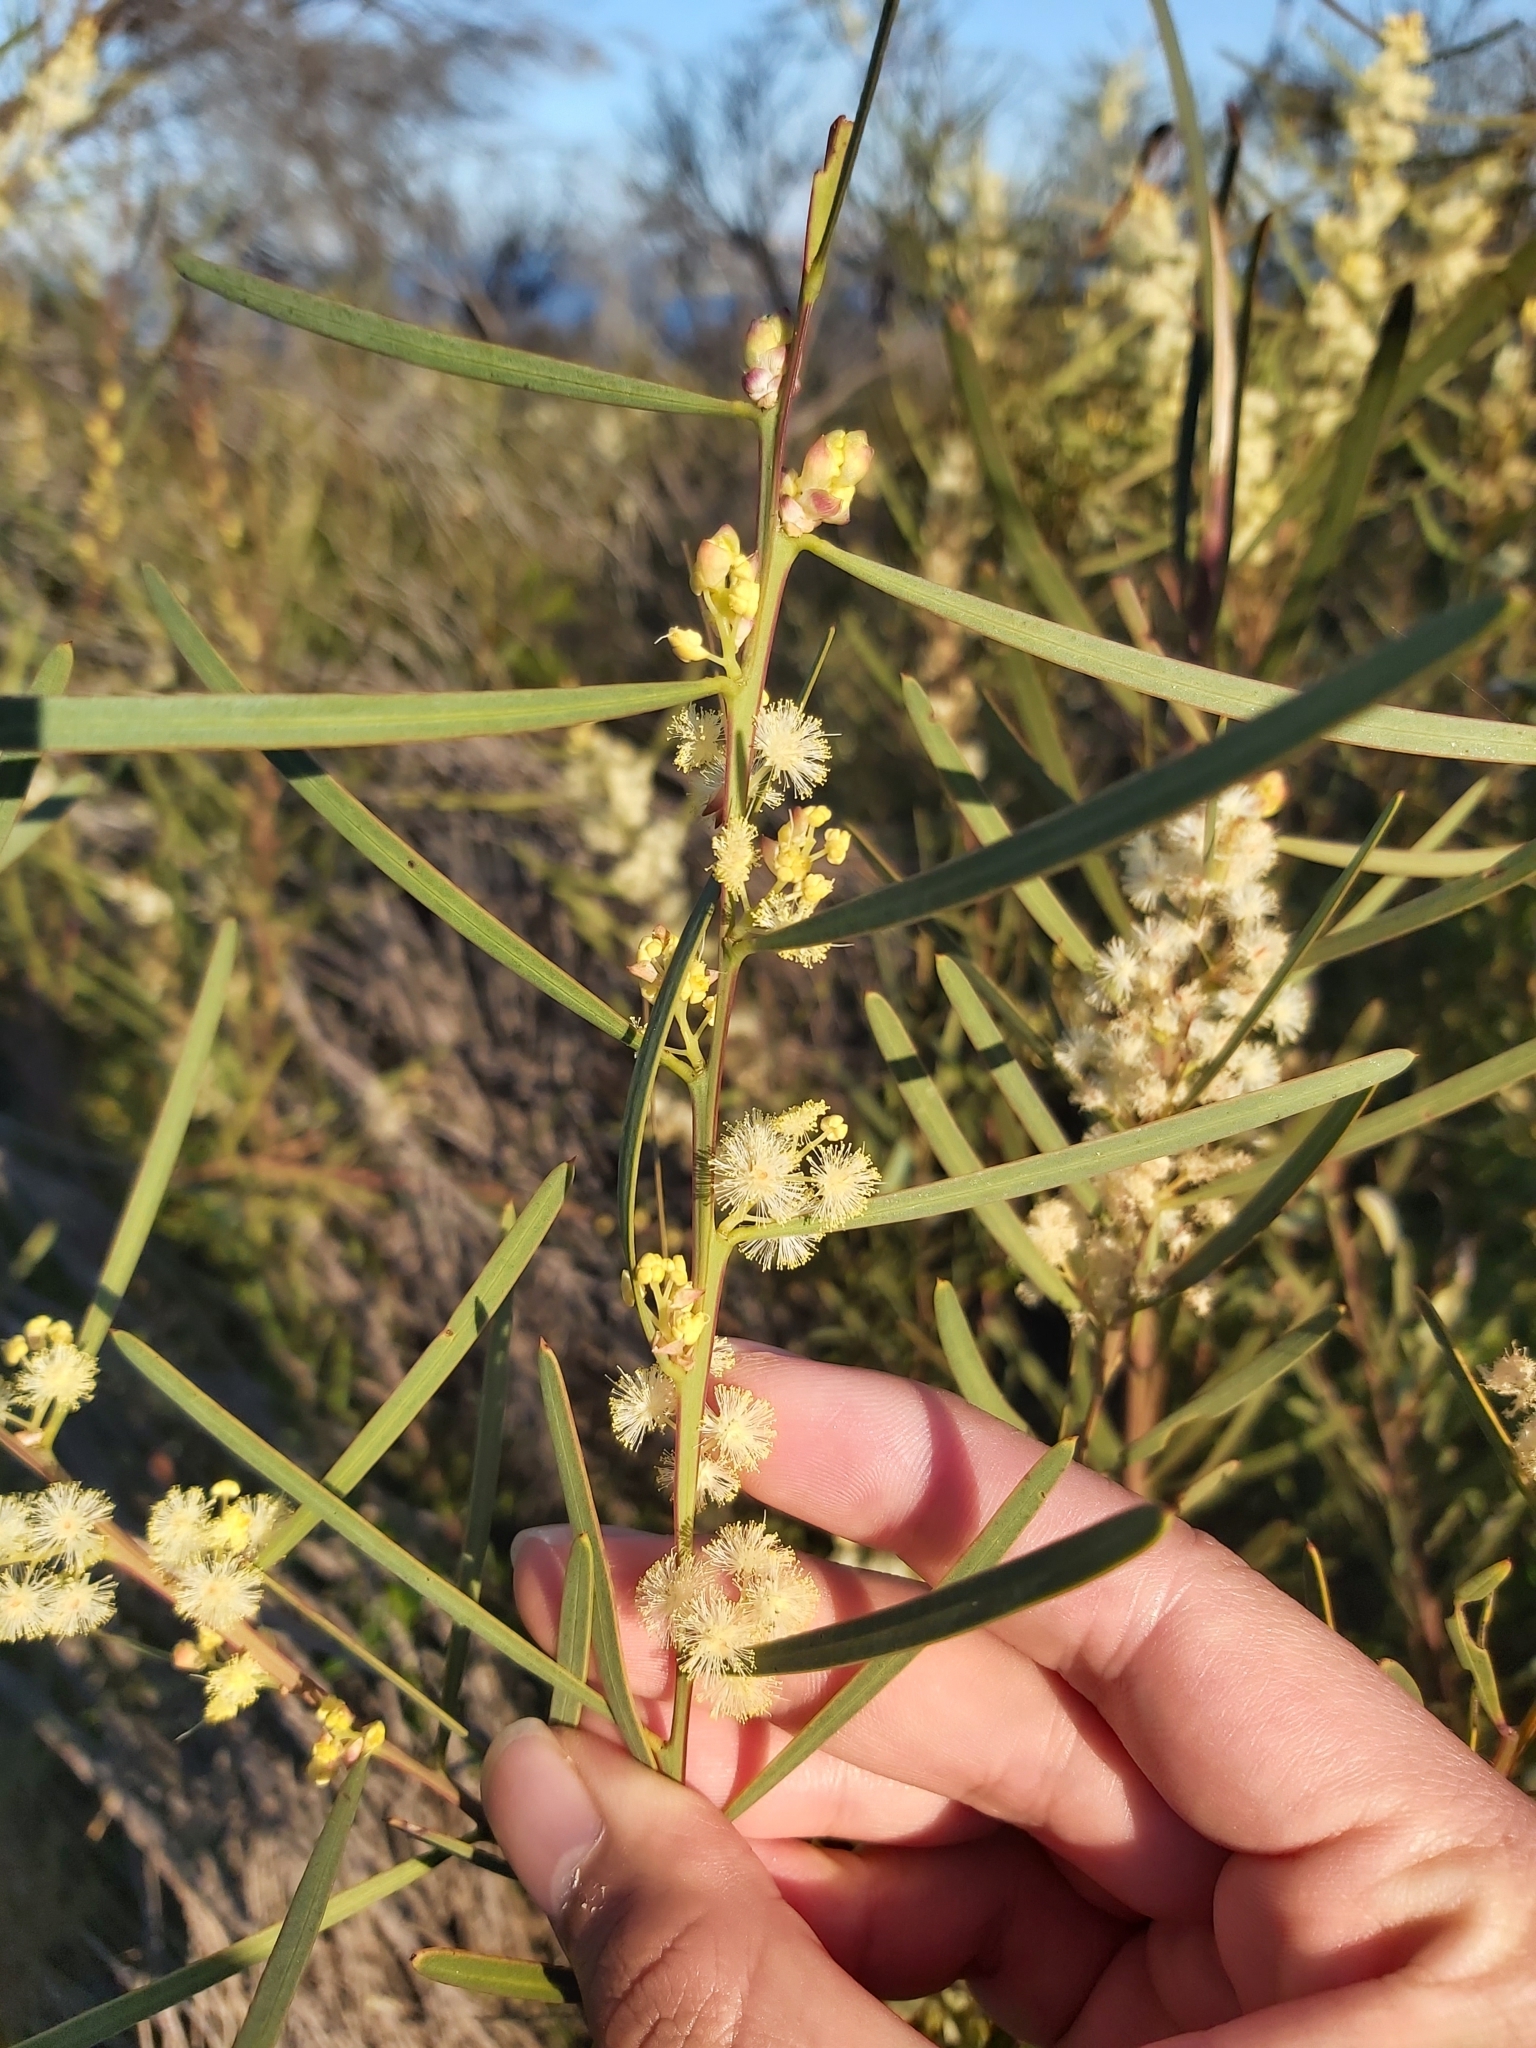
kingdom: Plantae
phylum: Tracheophyta
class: Magnoliopsida
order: Fabales
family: Fabaceae
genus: Acacia
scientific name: Acacia suaveolens
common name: Sweet acacia
